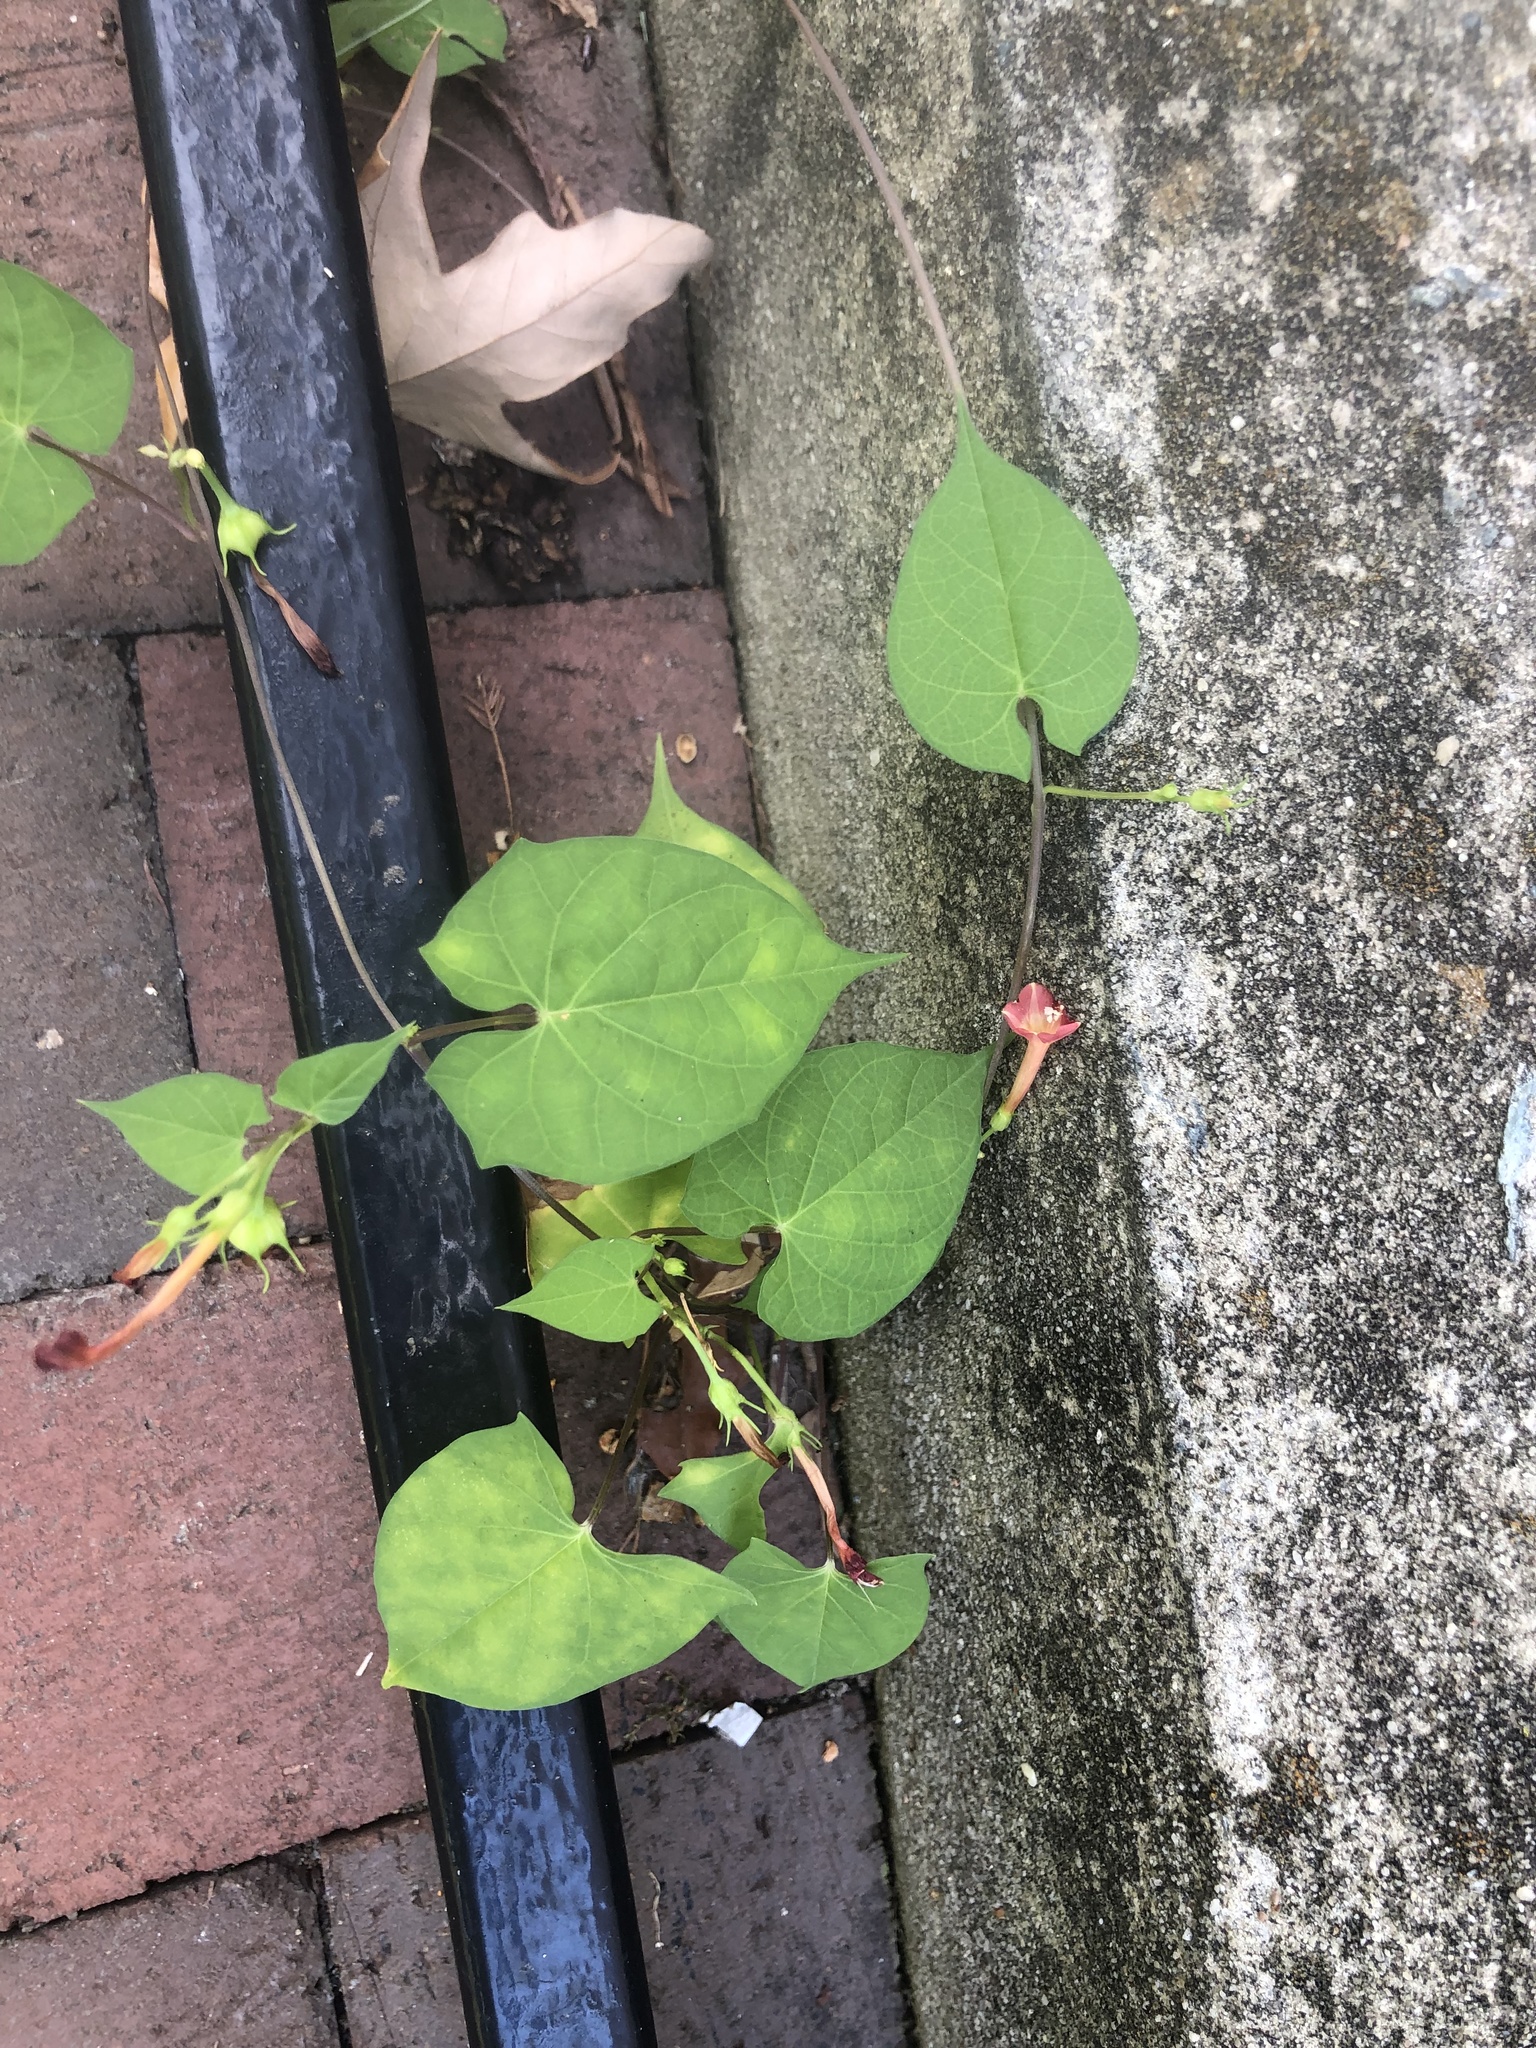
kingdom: Plantae
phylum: Tracheophyta
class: Magnoliopsida
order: Solanales
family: Convolvulaceae
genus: Ipomoea
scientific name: Ipomoea coccinea
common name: Red morning-glory
